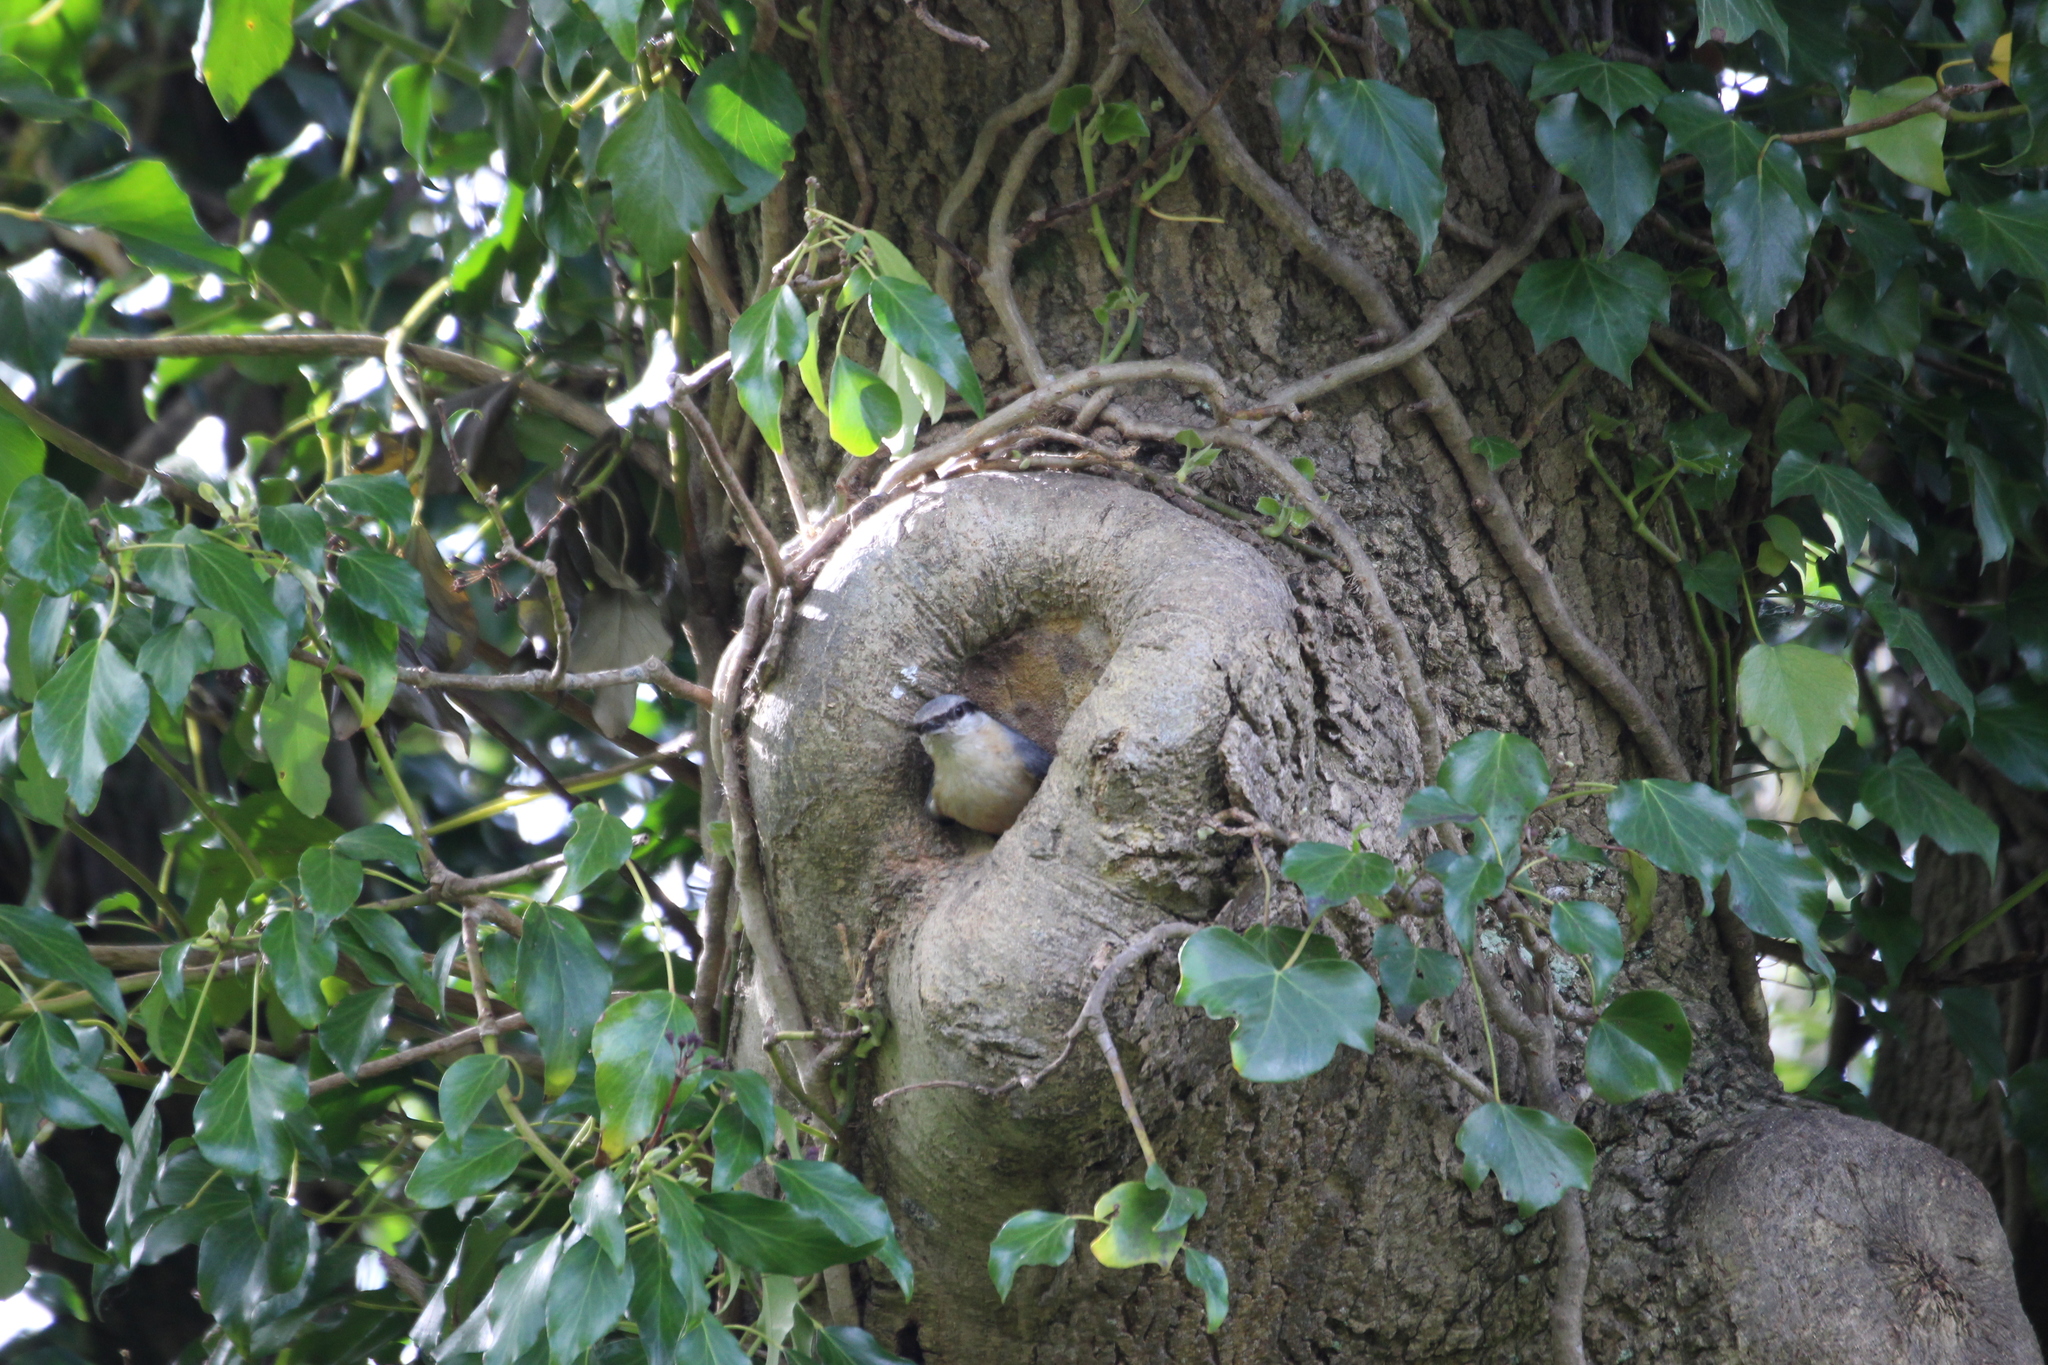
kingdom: Animalia
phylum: Chordata
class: Aves
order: Passeriformes
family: Sittidae
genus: Sitta
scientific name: Sitta europaea
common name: Eurasian nuthatch
